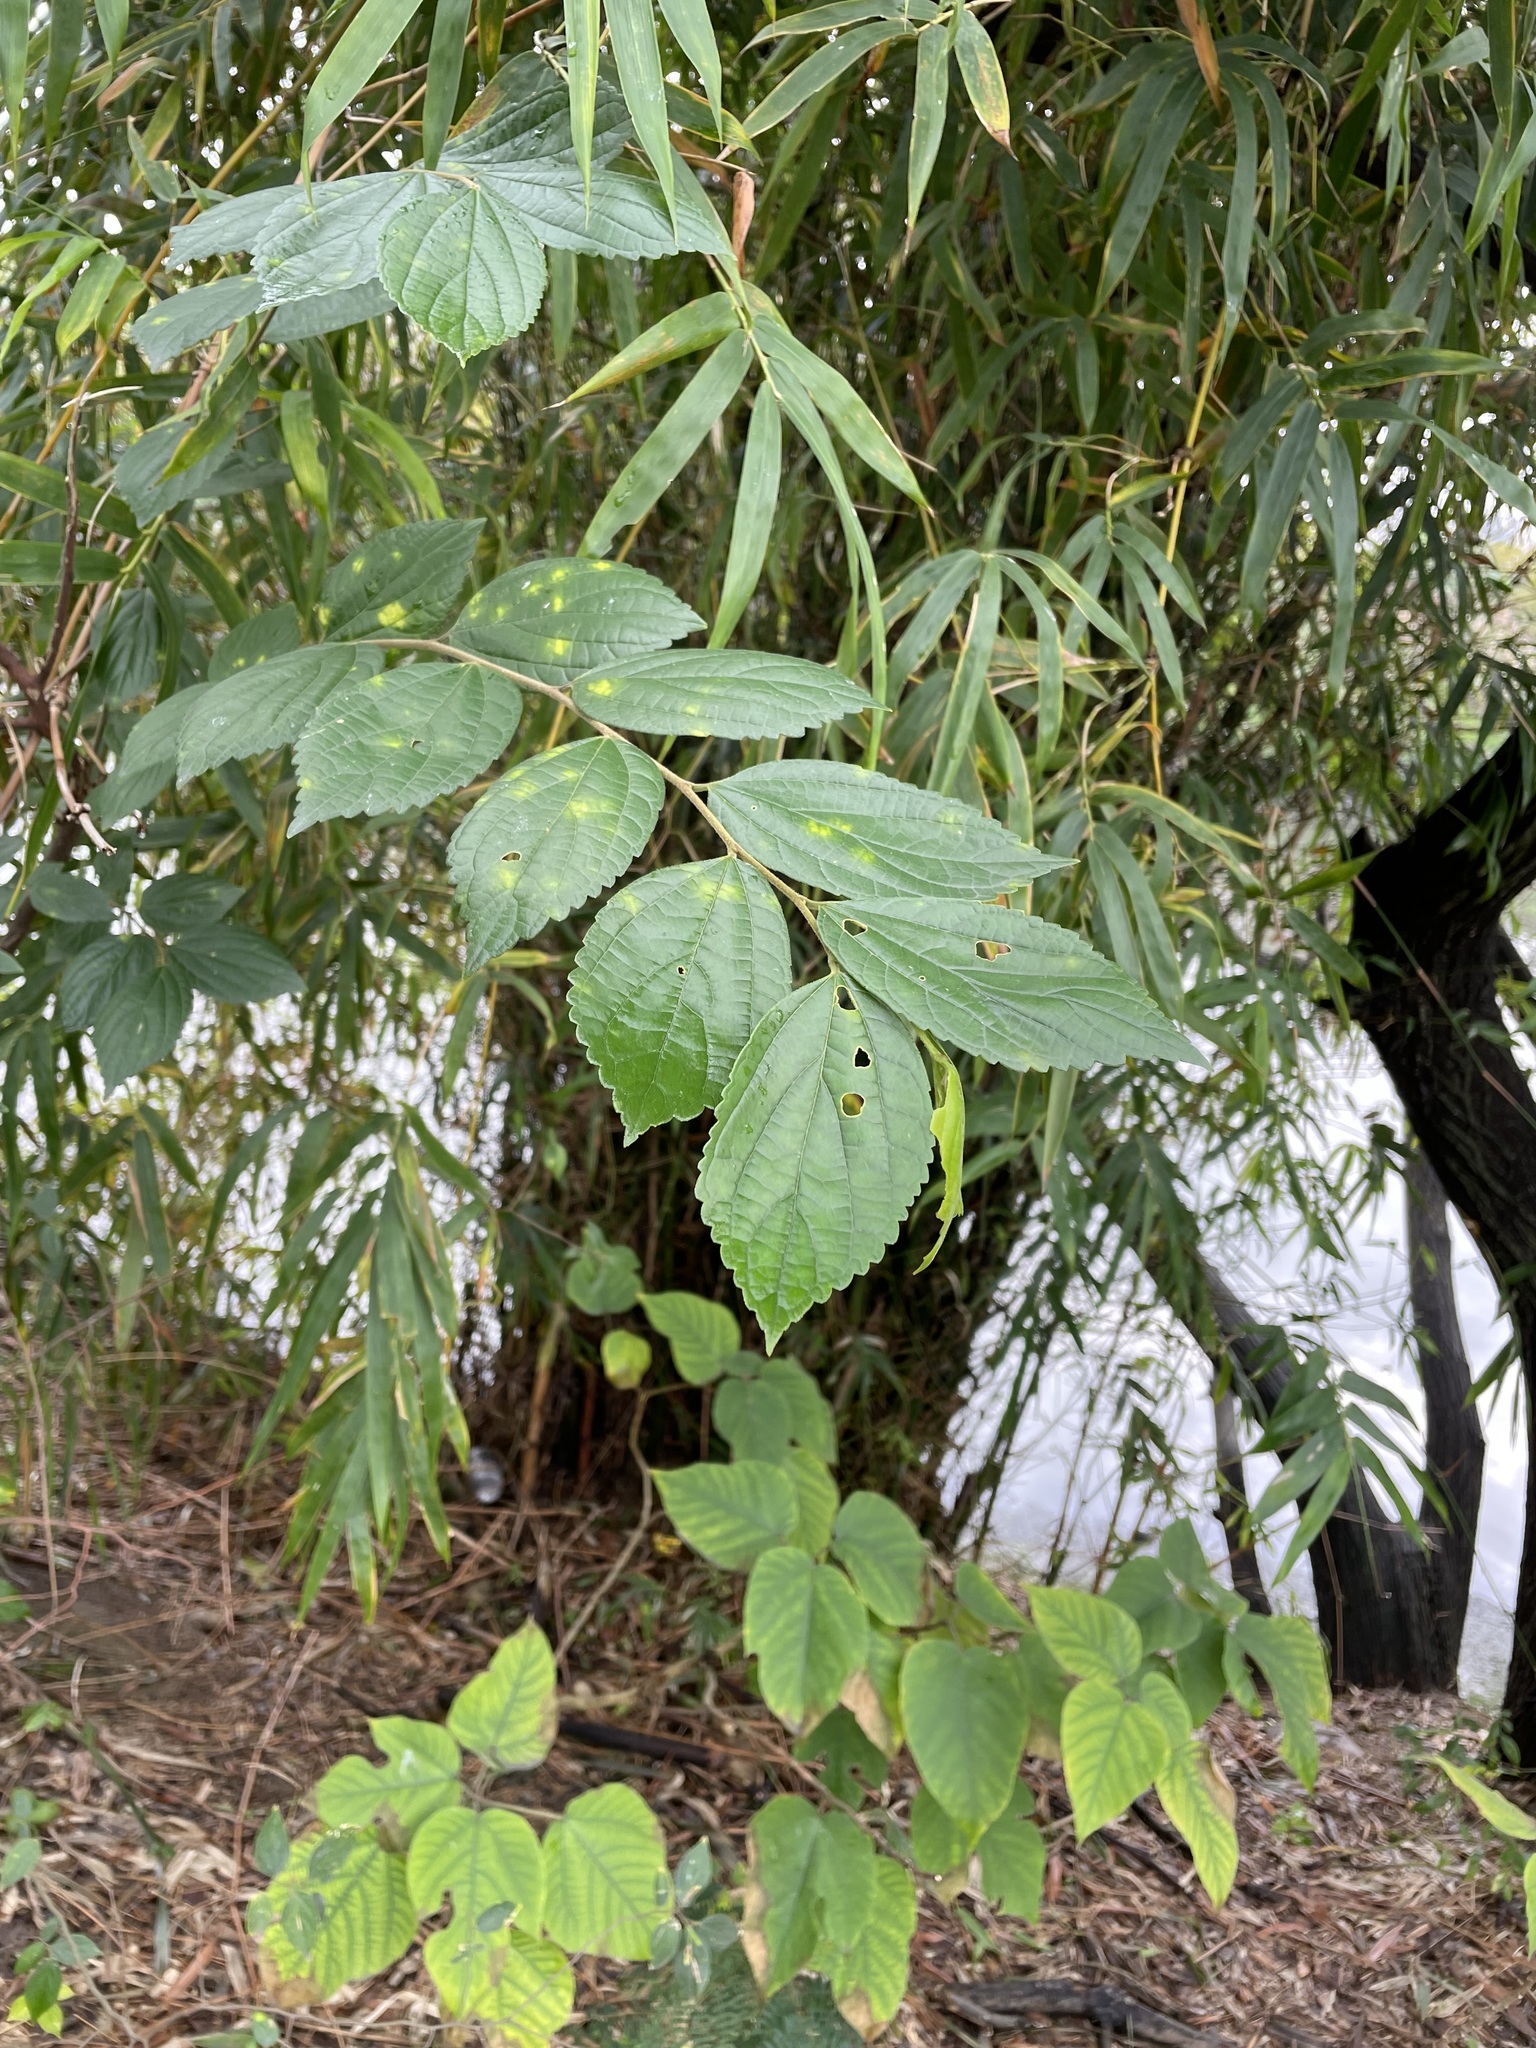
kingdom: Plantae
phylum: Tracheophyta
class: Magnoliopsida
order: Rosales
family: Cannabaceae
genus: Celtis
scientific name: Celtis sinensis
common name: Chinese hackberry
